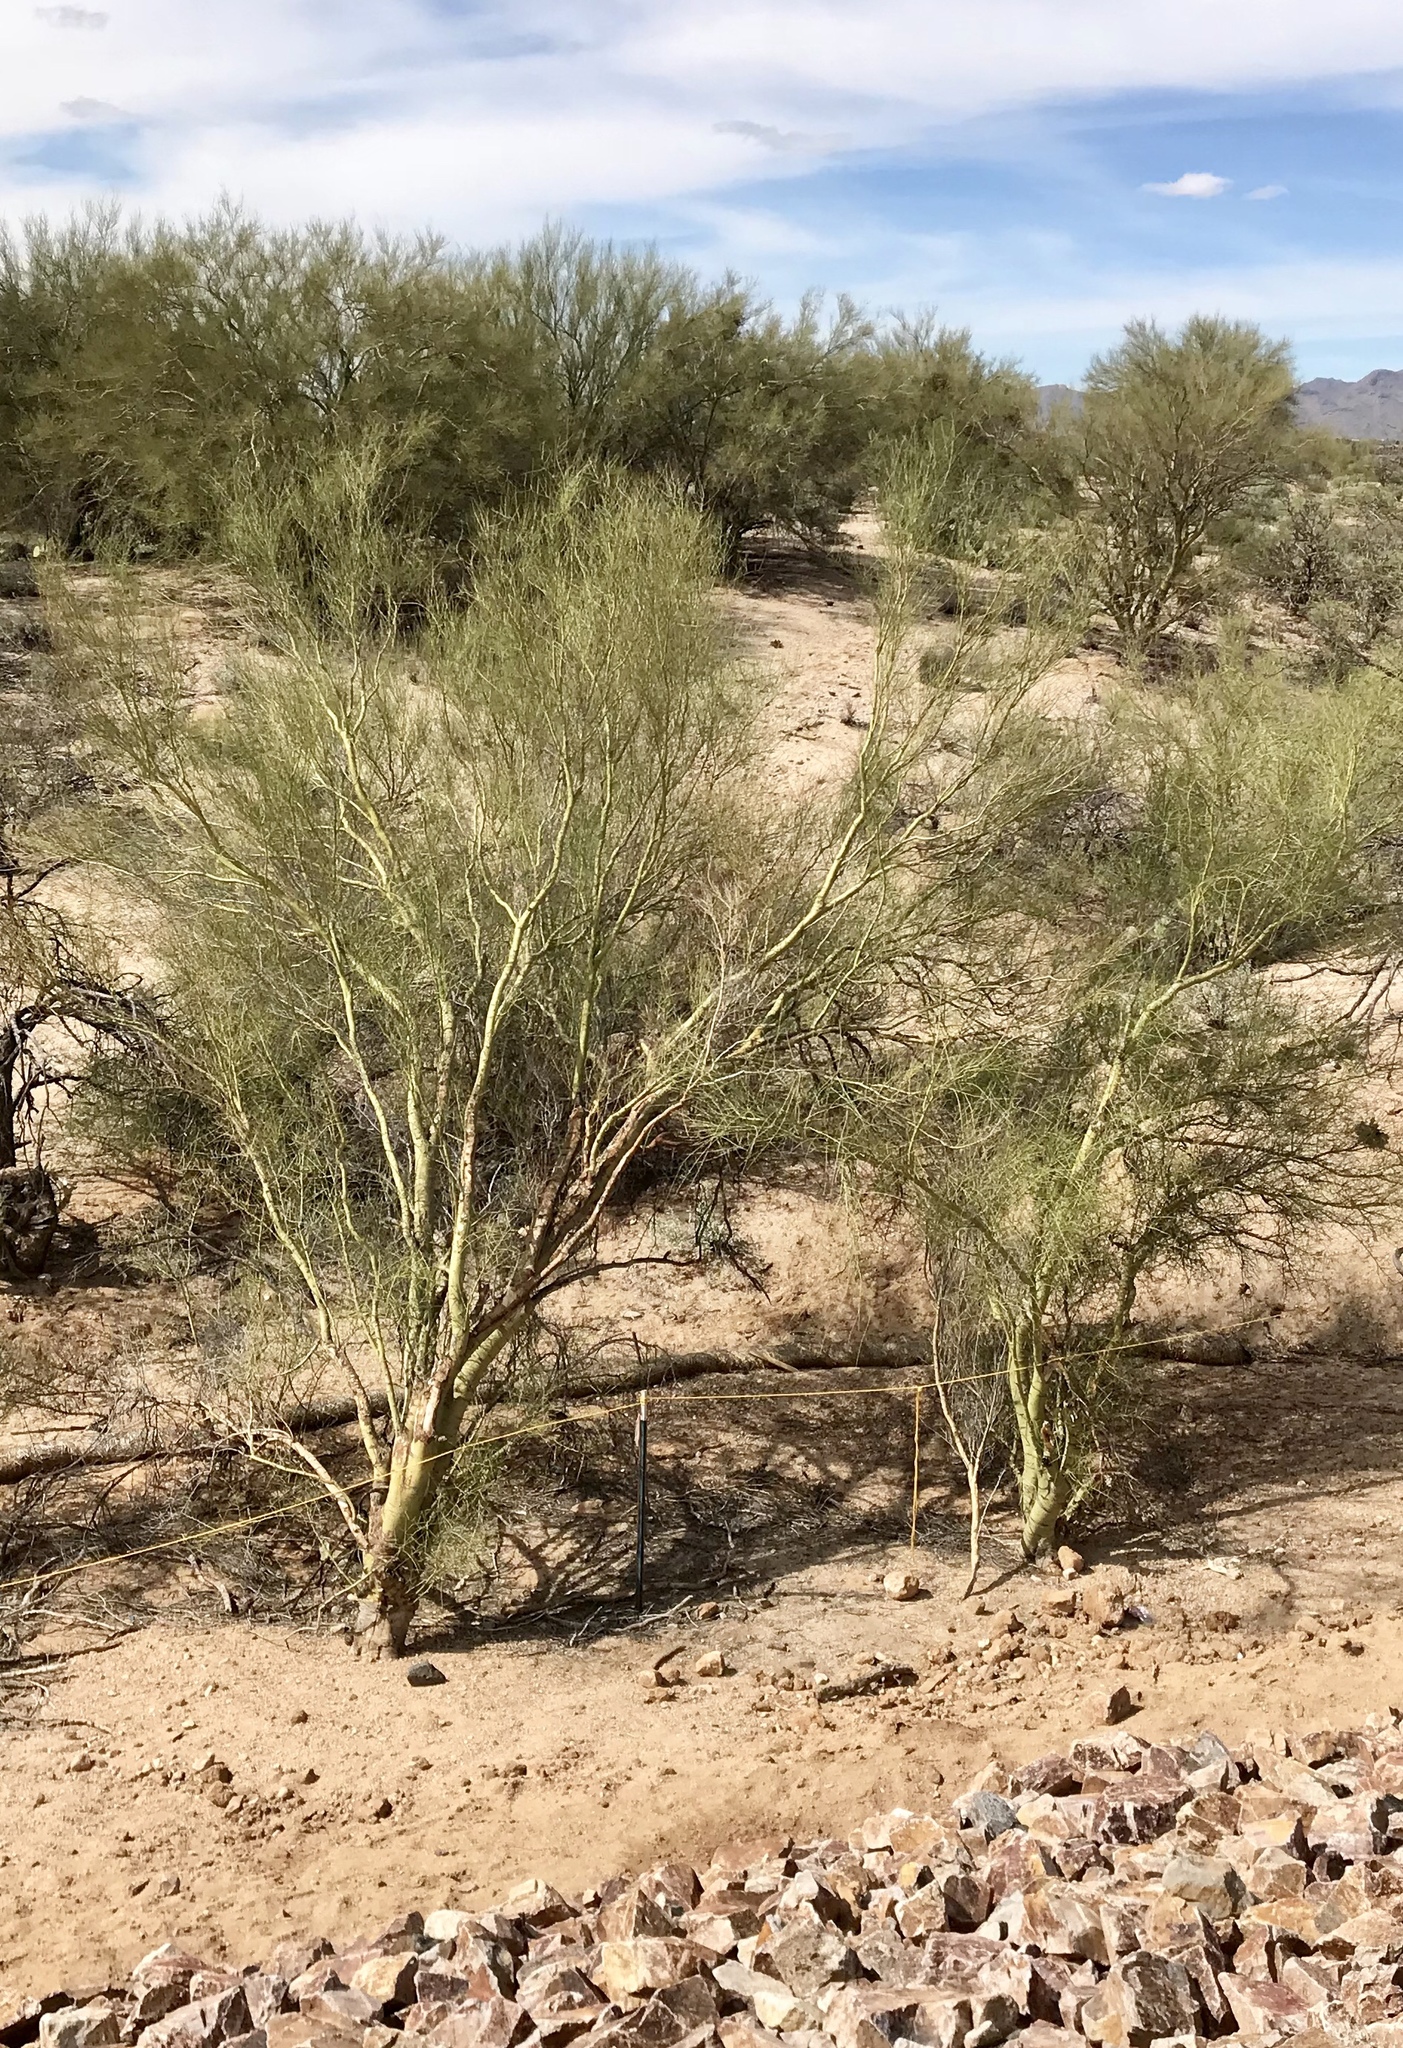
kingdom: Plantae
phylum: Tracheophyta
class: Magnoliopsida
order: Fabales
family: Fabaceae
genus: Parkinsonia
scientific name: Parkinsonia microphylla
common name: Yellow paloverde
